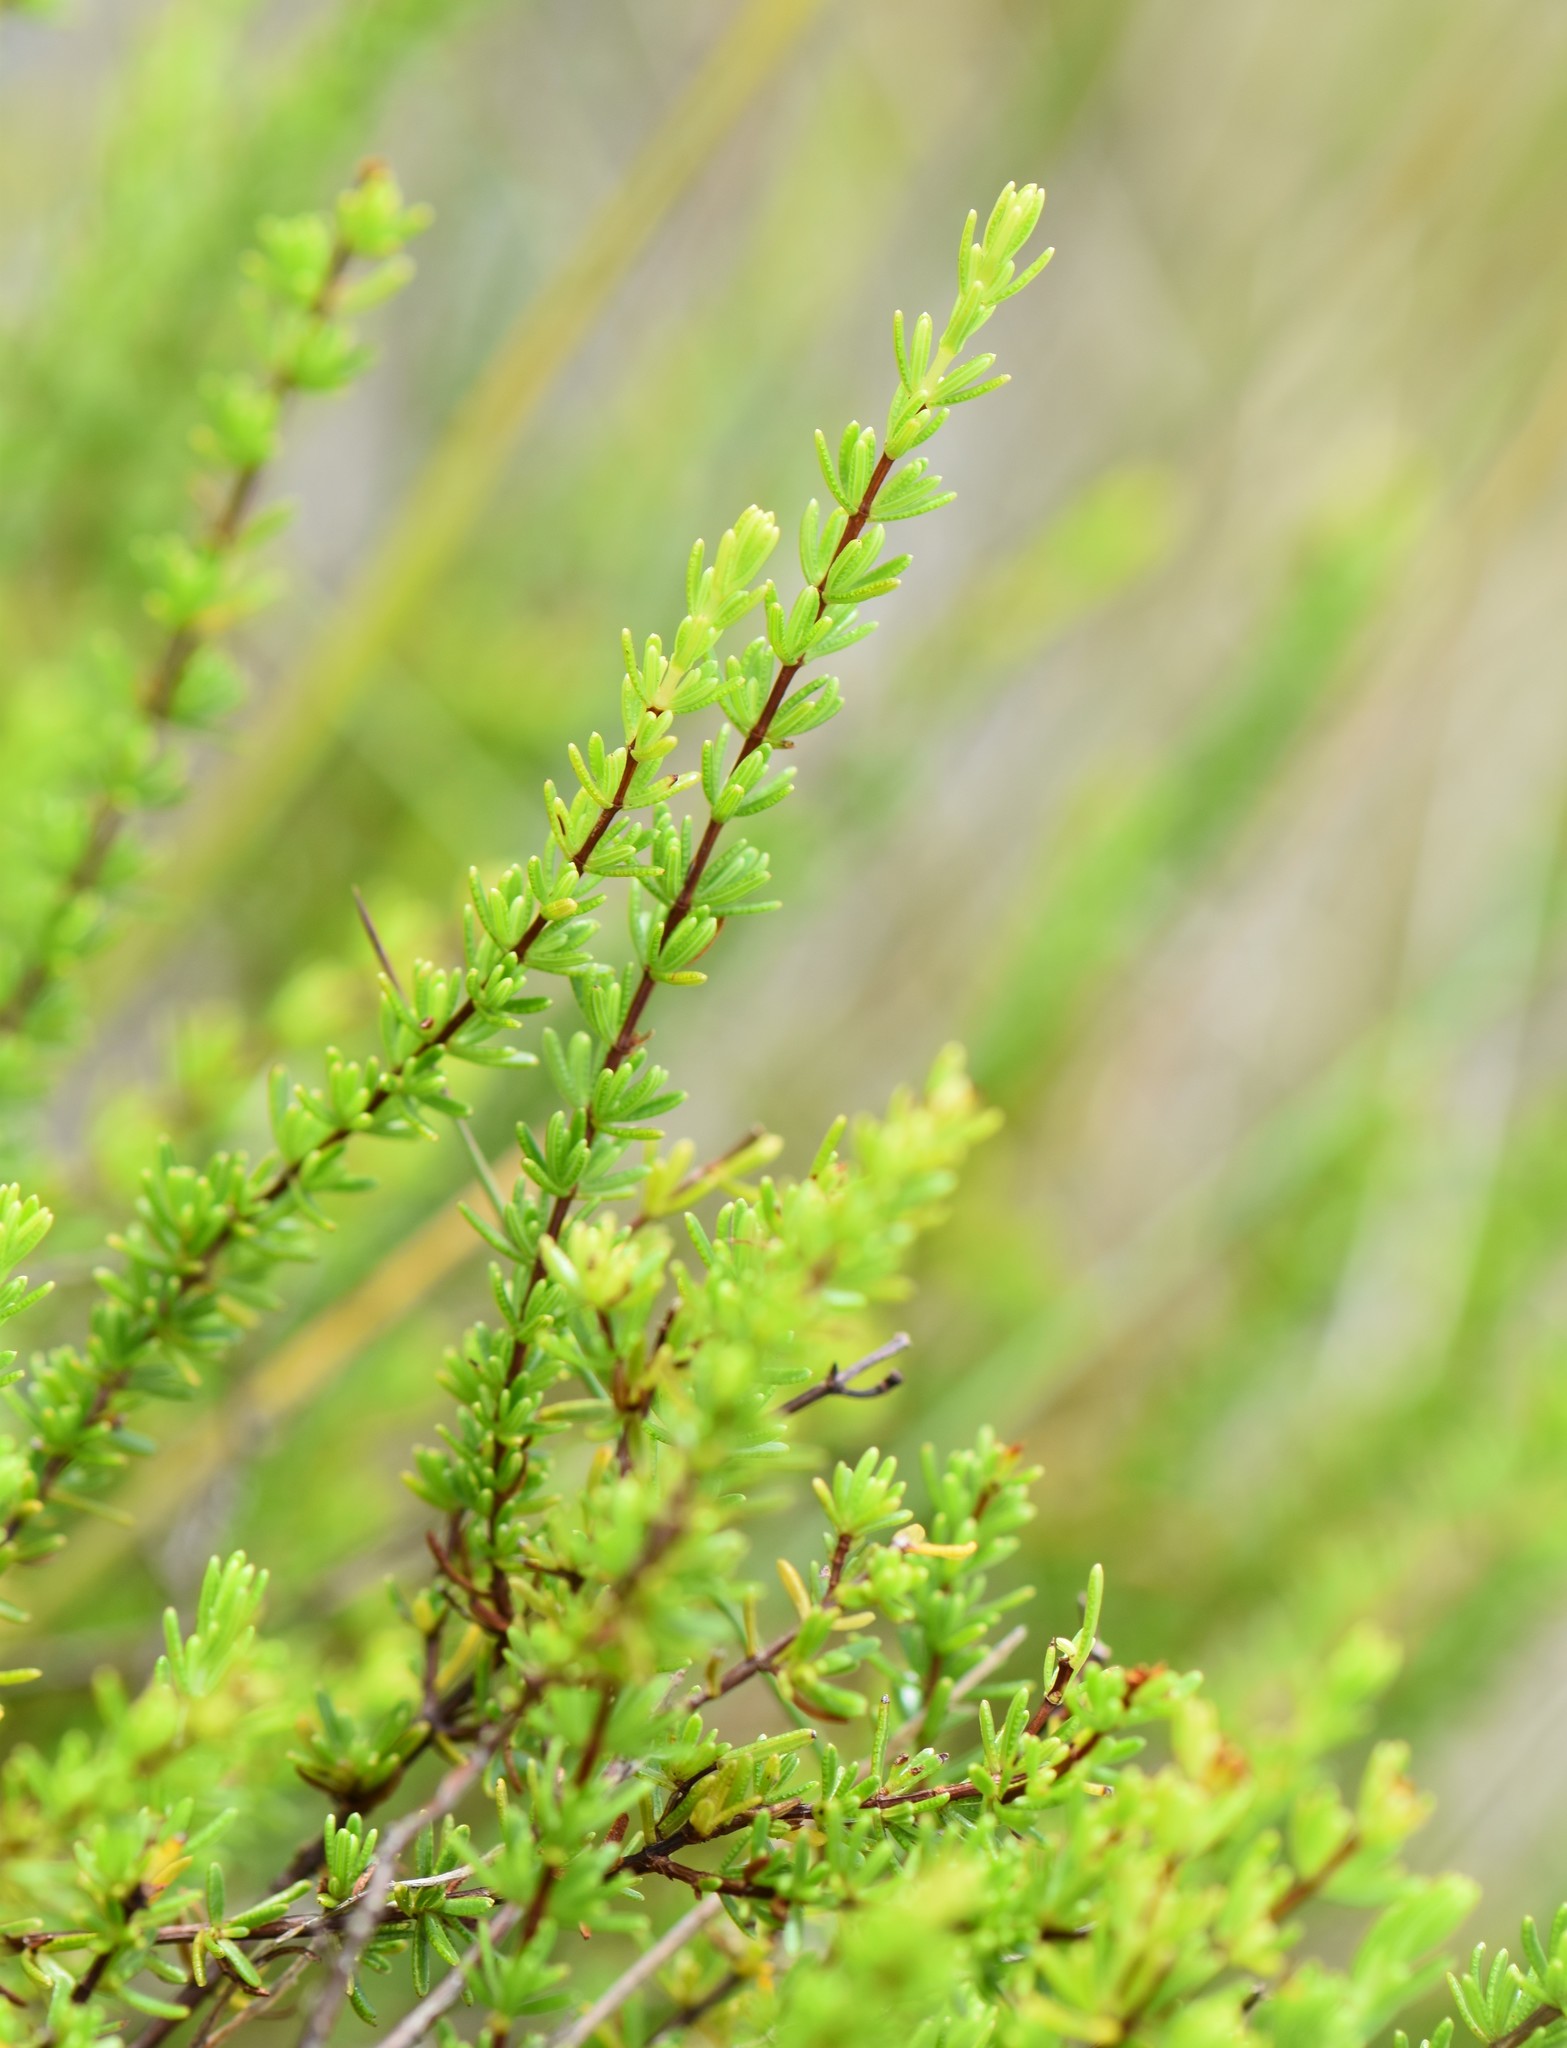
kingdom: Plantae
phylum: Tracheophyta
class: Magnoliopsida
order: Malpighiales
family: Hypericaceae
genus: Hypericum
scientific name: Hypericum tenuifolium
